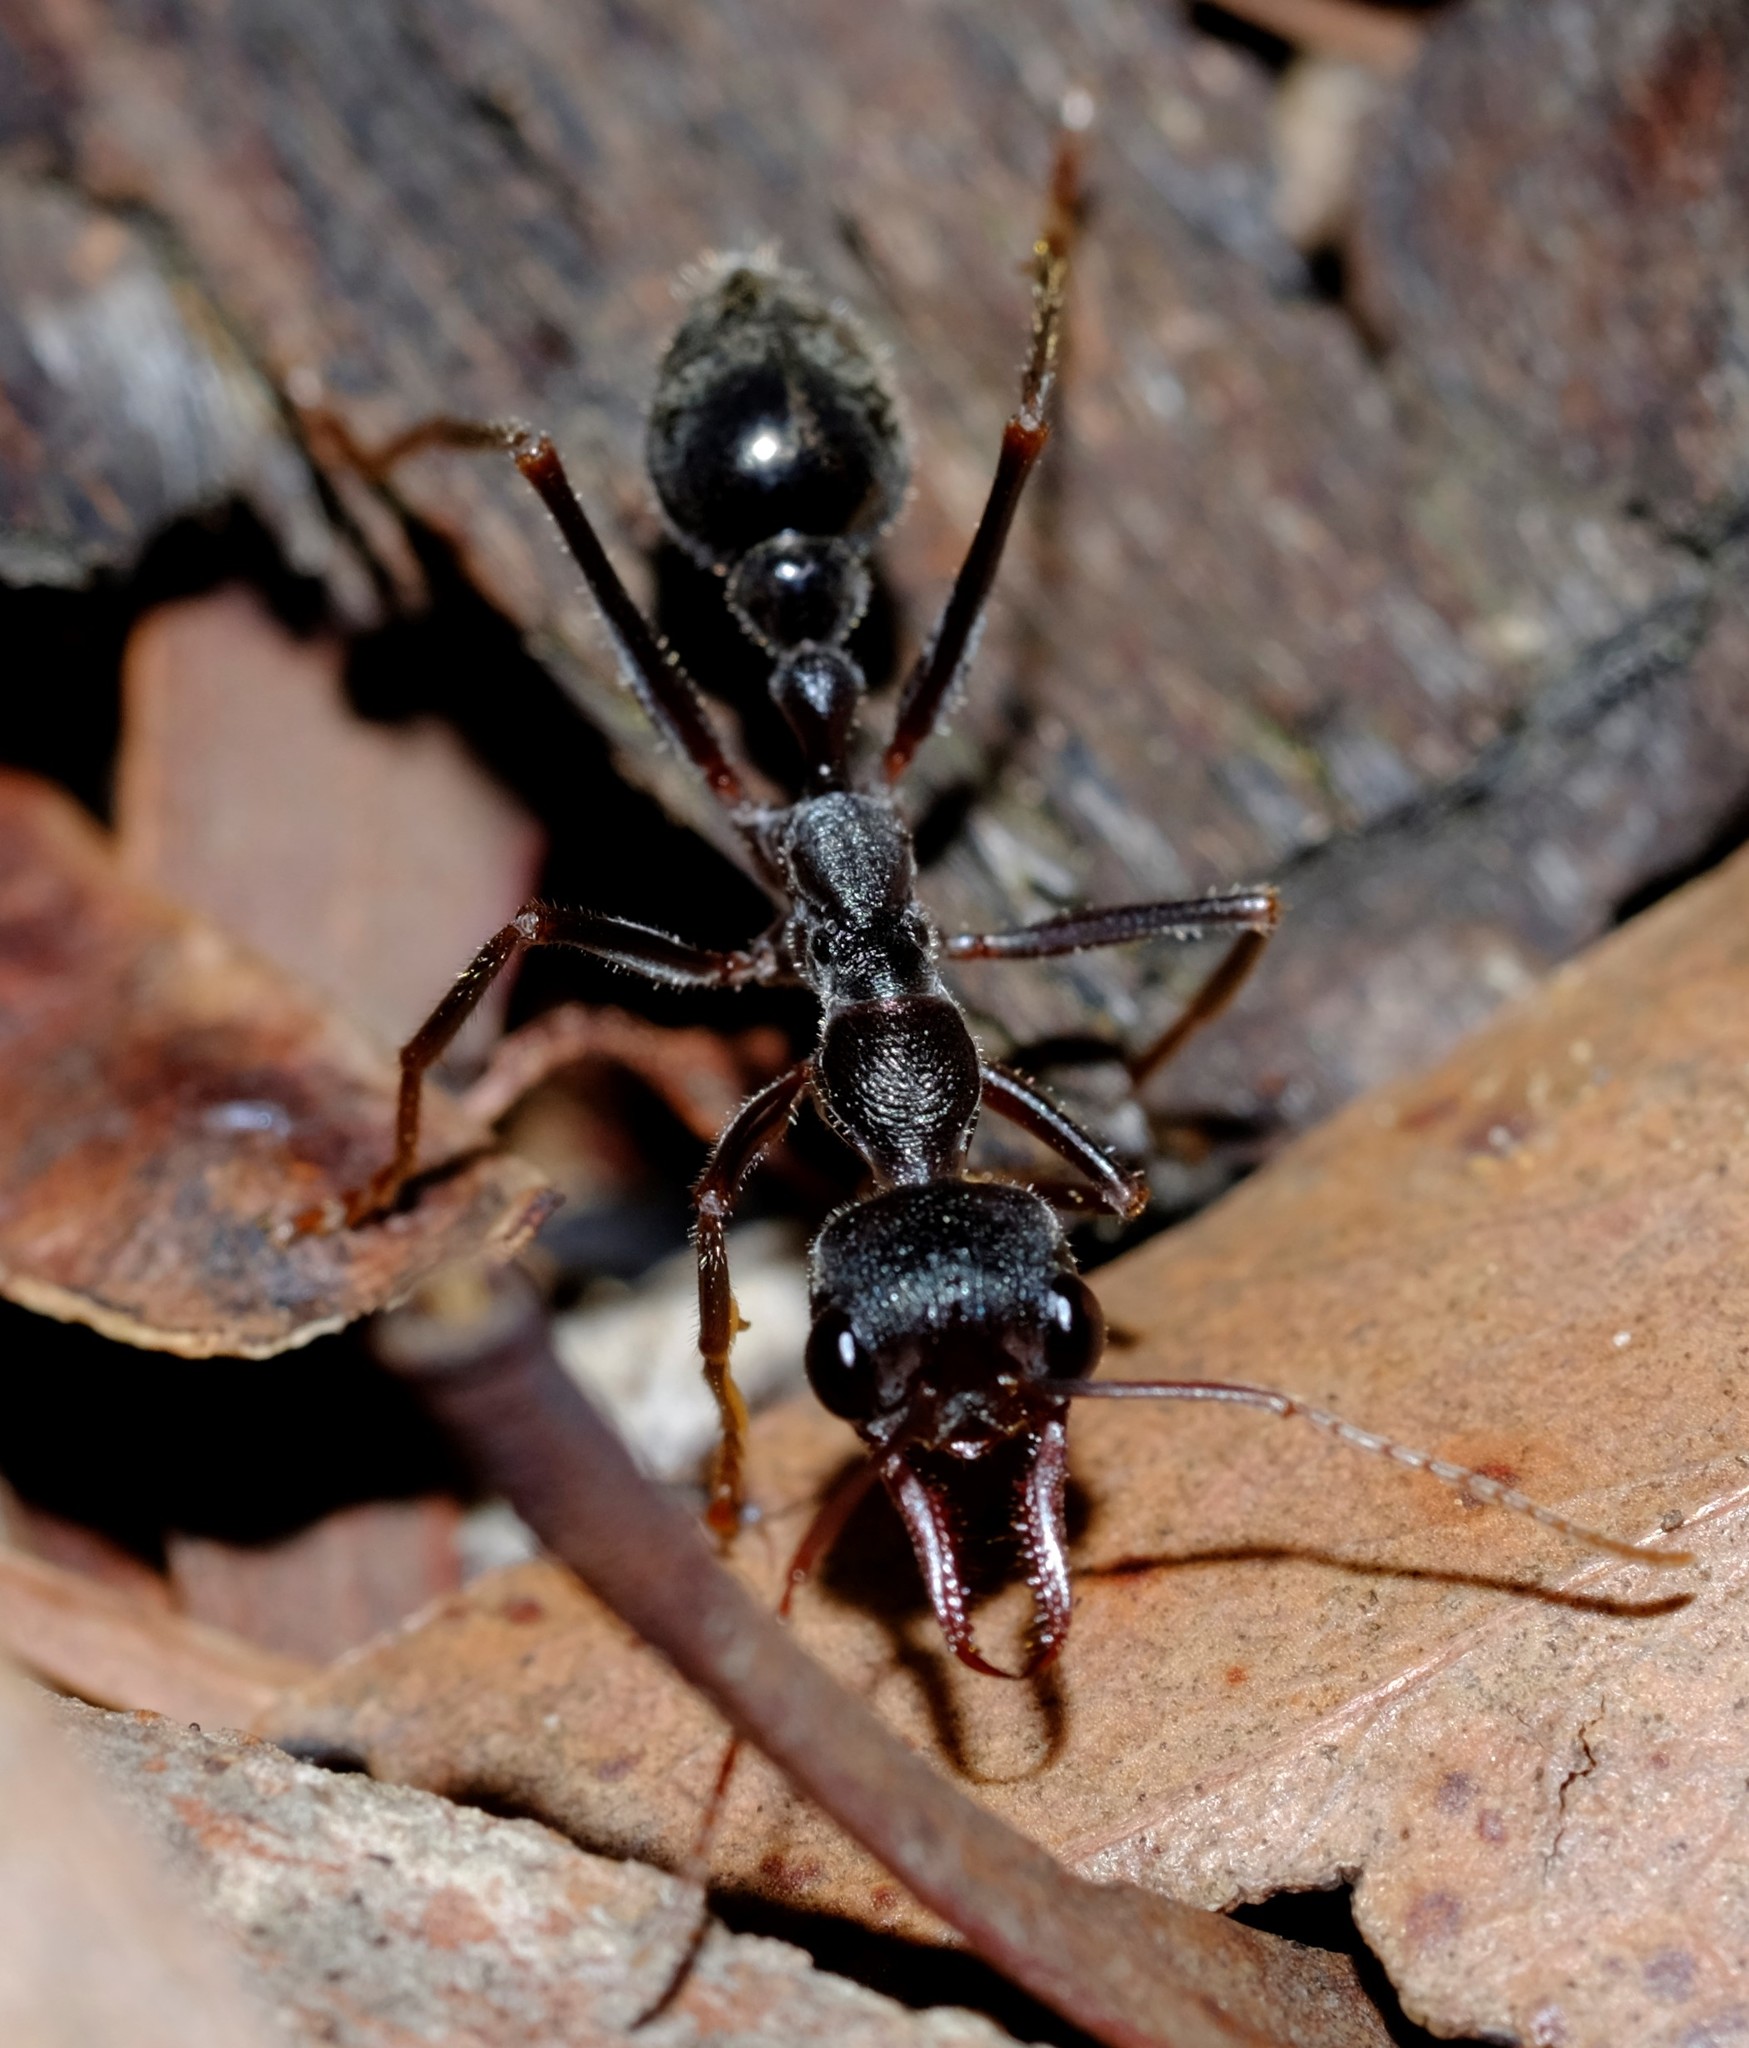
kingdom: Animalia
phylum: Arthropoda
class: Insecta
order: Hymenoptera
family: Formicidae
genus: Myrmecia
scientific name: Myrmecia pyriformis
